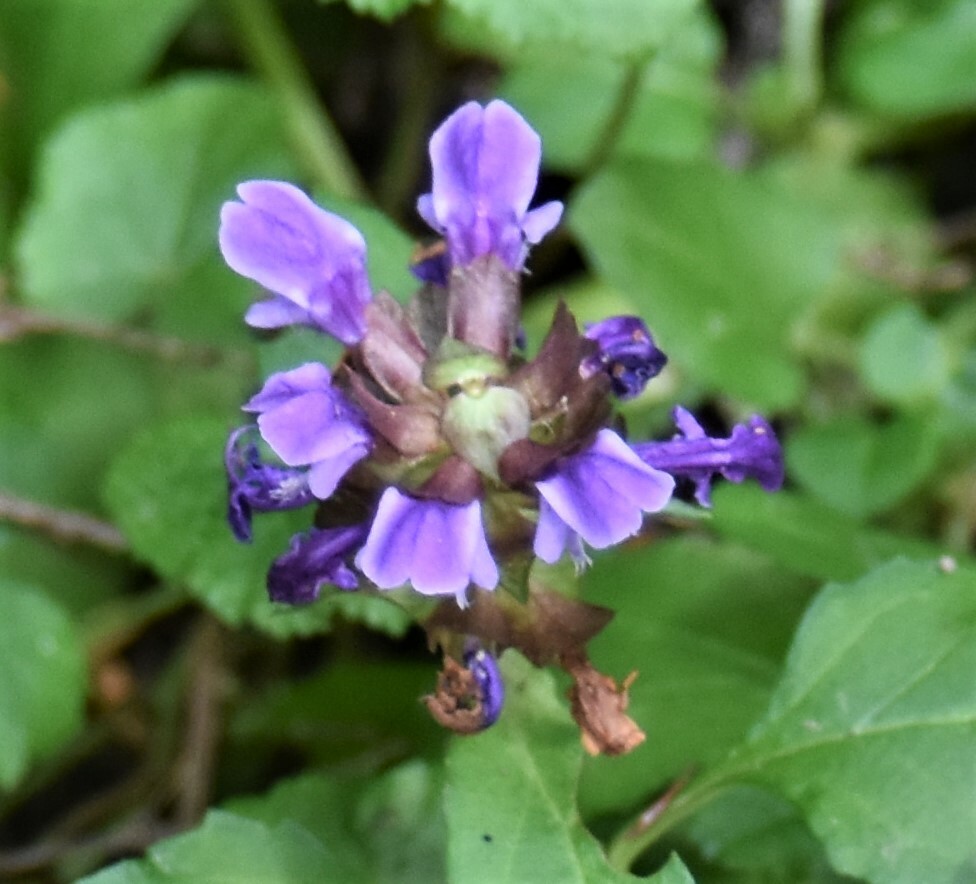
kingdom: Plantae
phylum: Tracheophyta
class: Magnoliopsida
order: Lamiales
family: Lamiaceae
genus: Prunella
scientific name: Prunella vulgaris
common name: Heal-all
